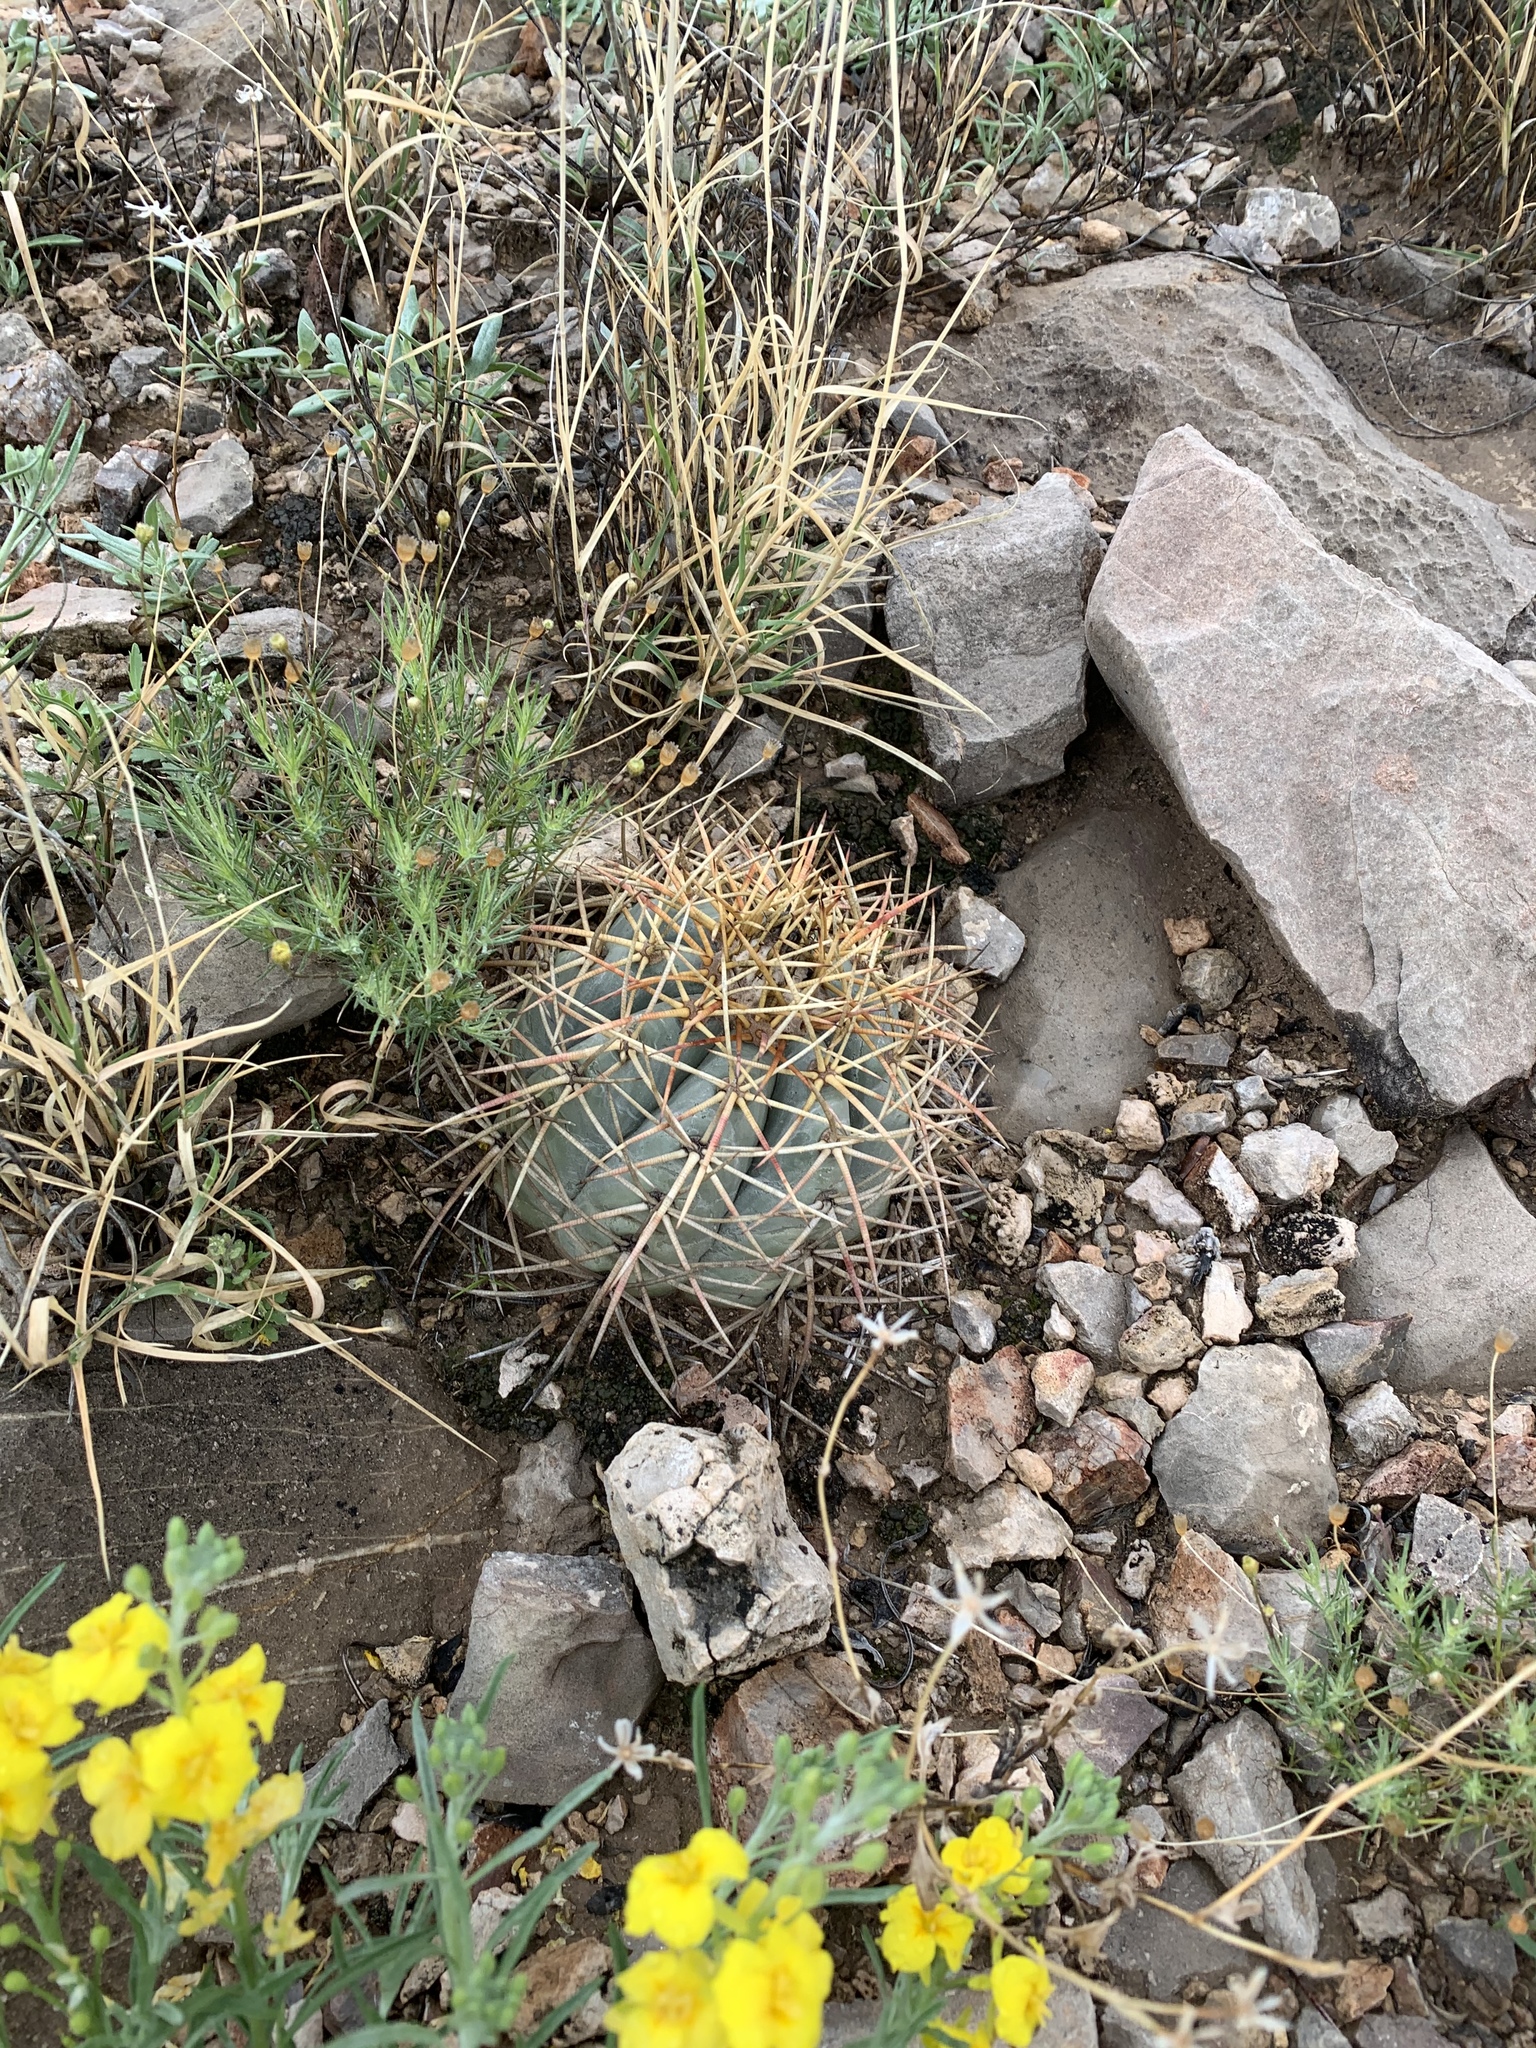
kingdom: Plantae
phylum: Tracheophyta
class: Magnoliopsida
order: Caryophyllales
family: Cactaceae
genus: Echinocactus
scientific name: Echinocactus horizonthalonius
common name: Devilshead
